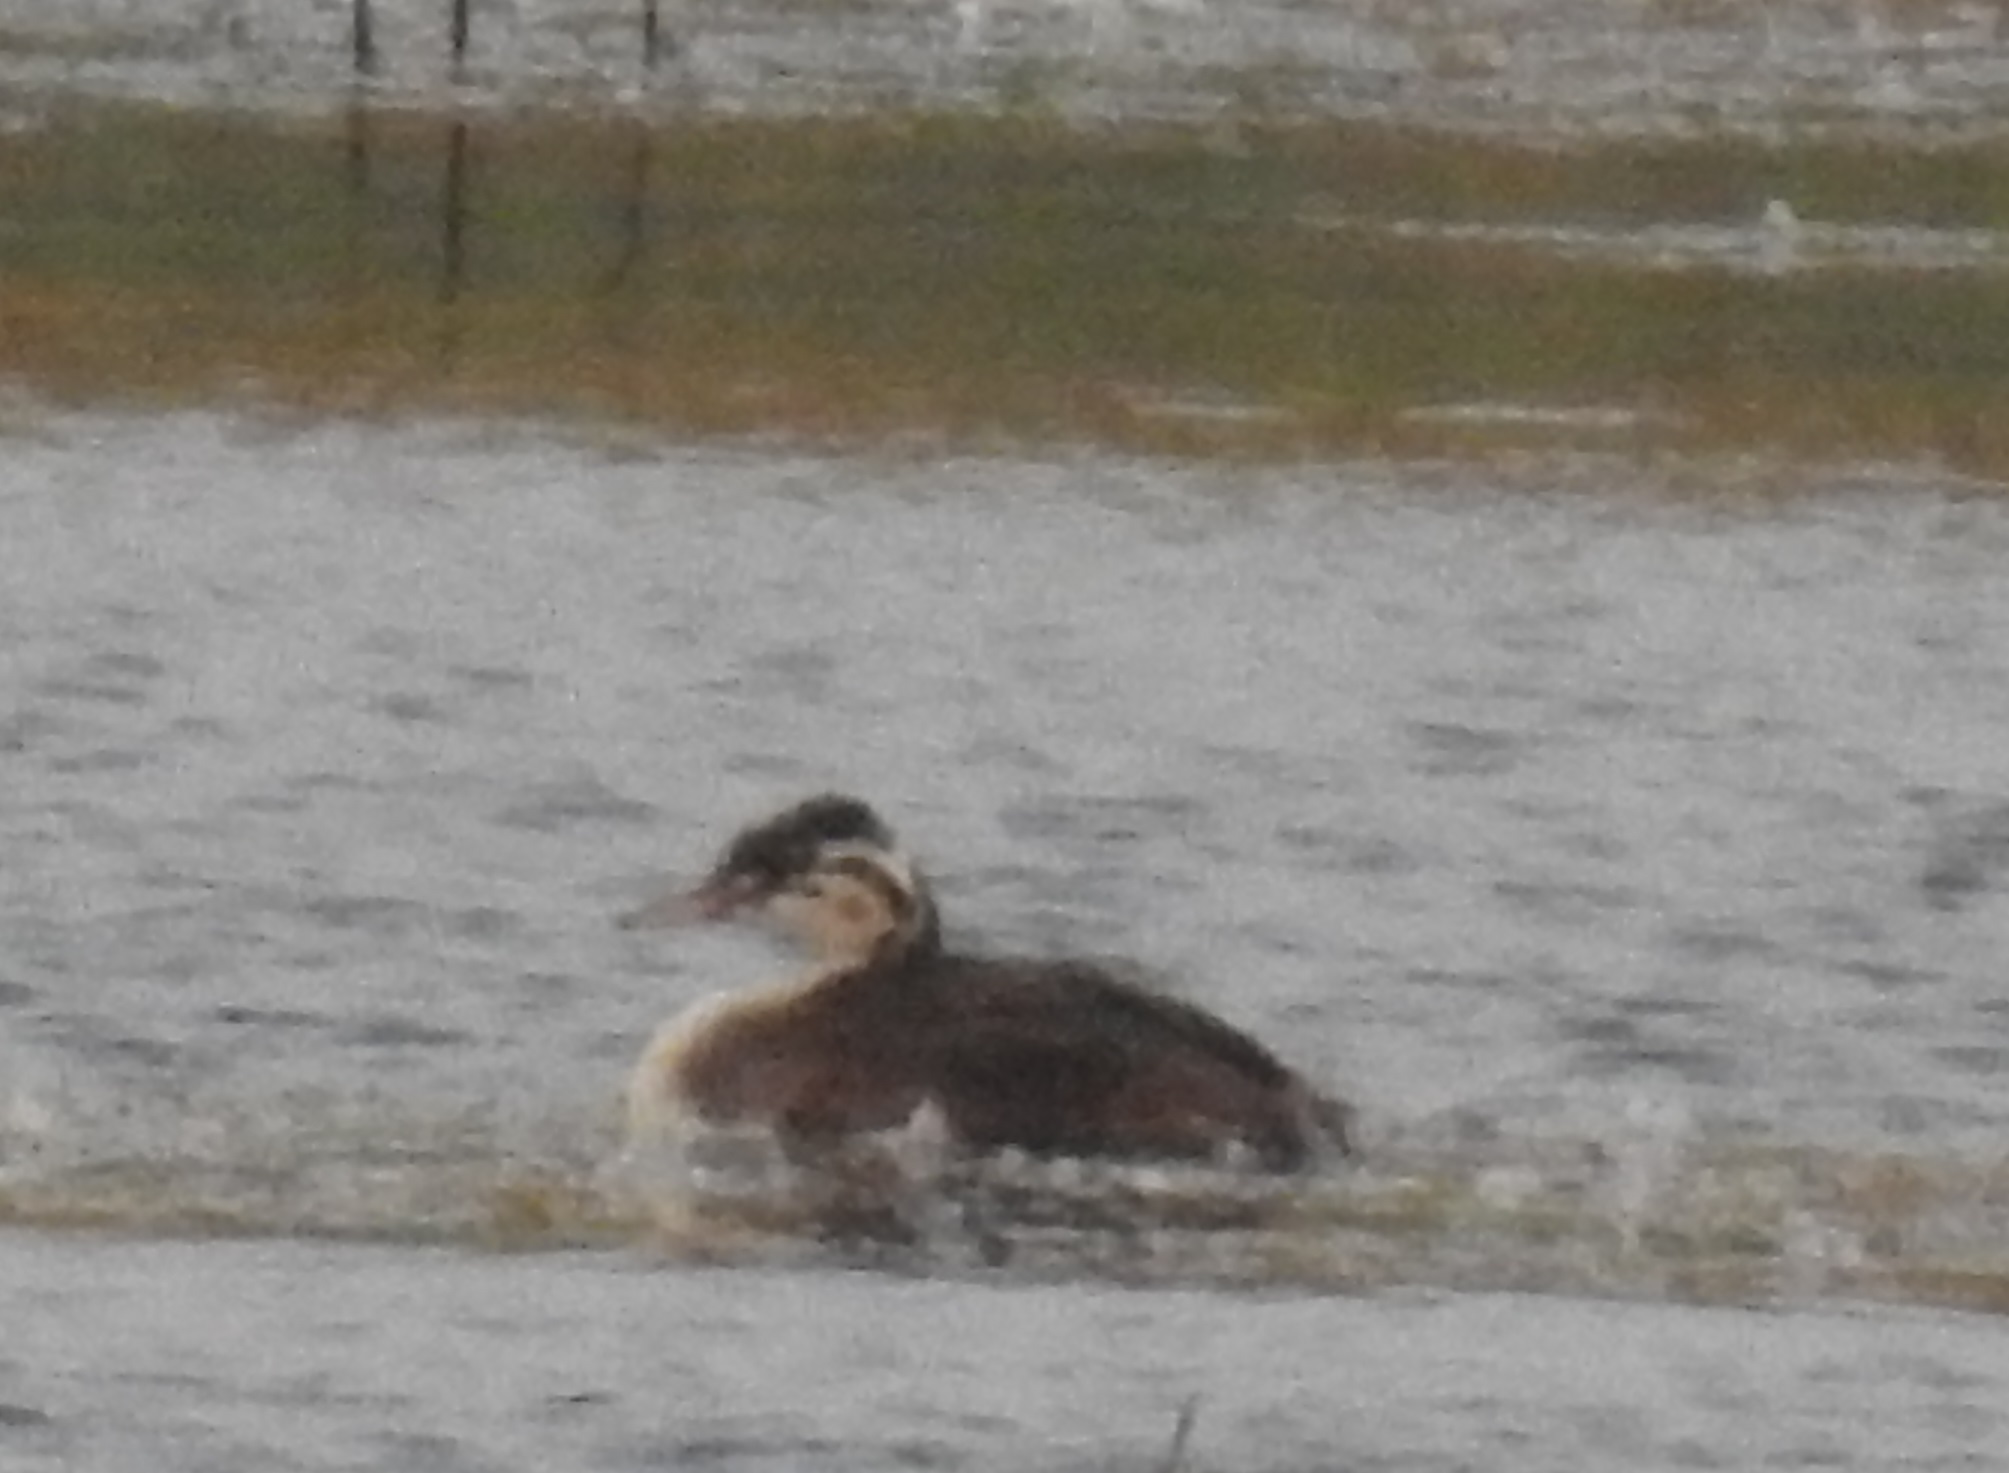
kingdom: Animalia
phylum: Chordata
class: Aves
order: Podicipediformes
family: Podicipedidae
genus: Podiceps
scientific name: Podiceps cristatus
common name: Great crested grebe
